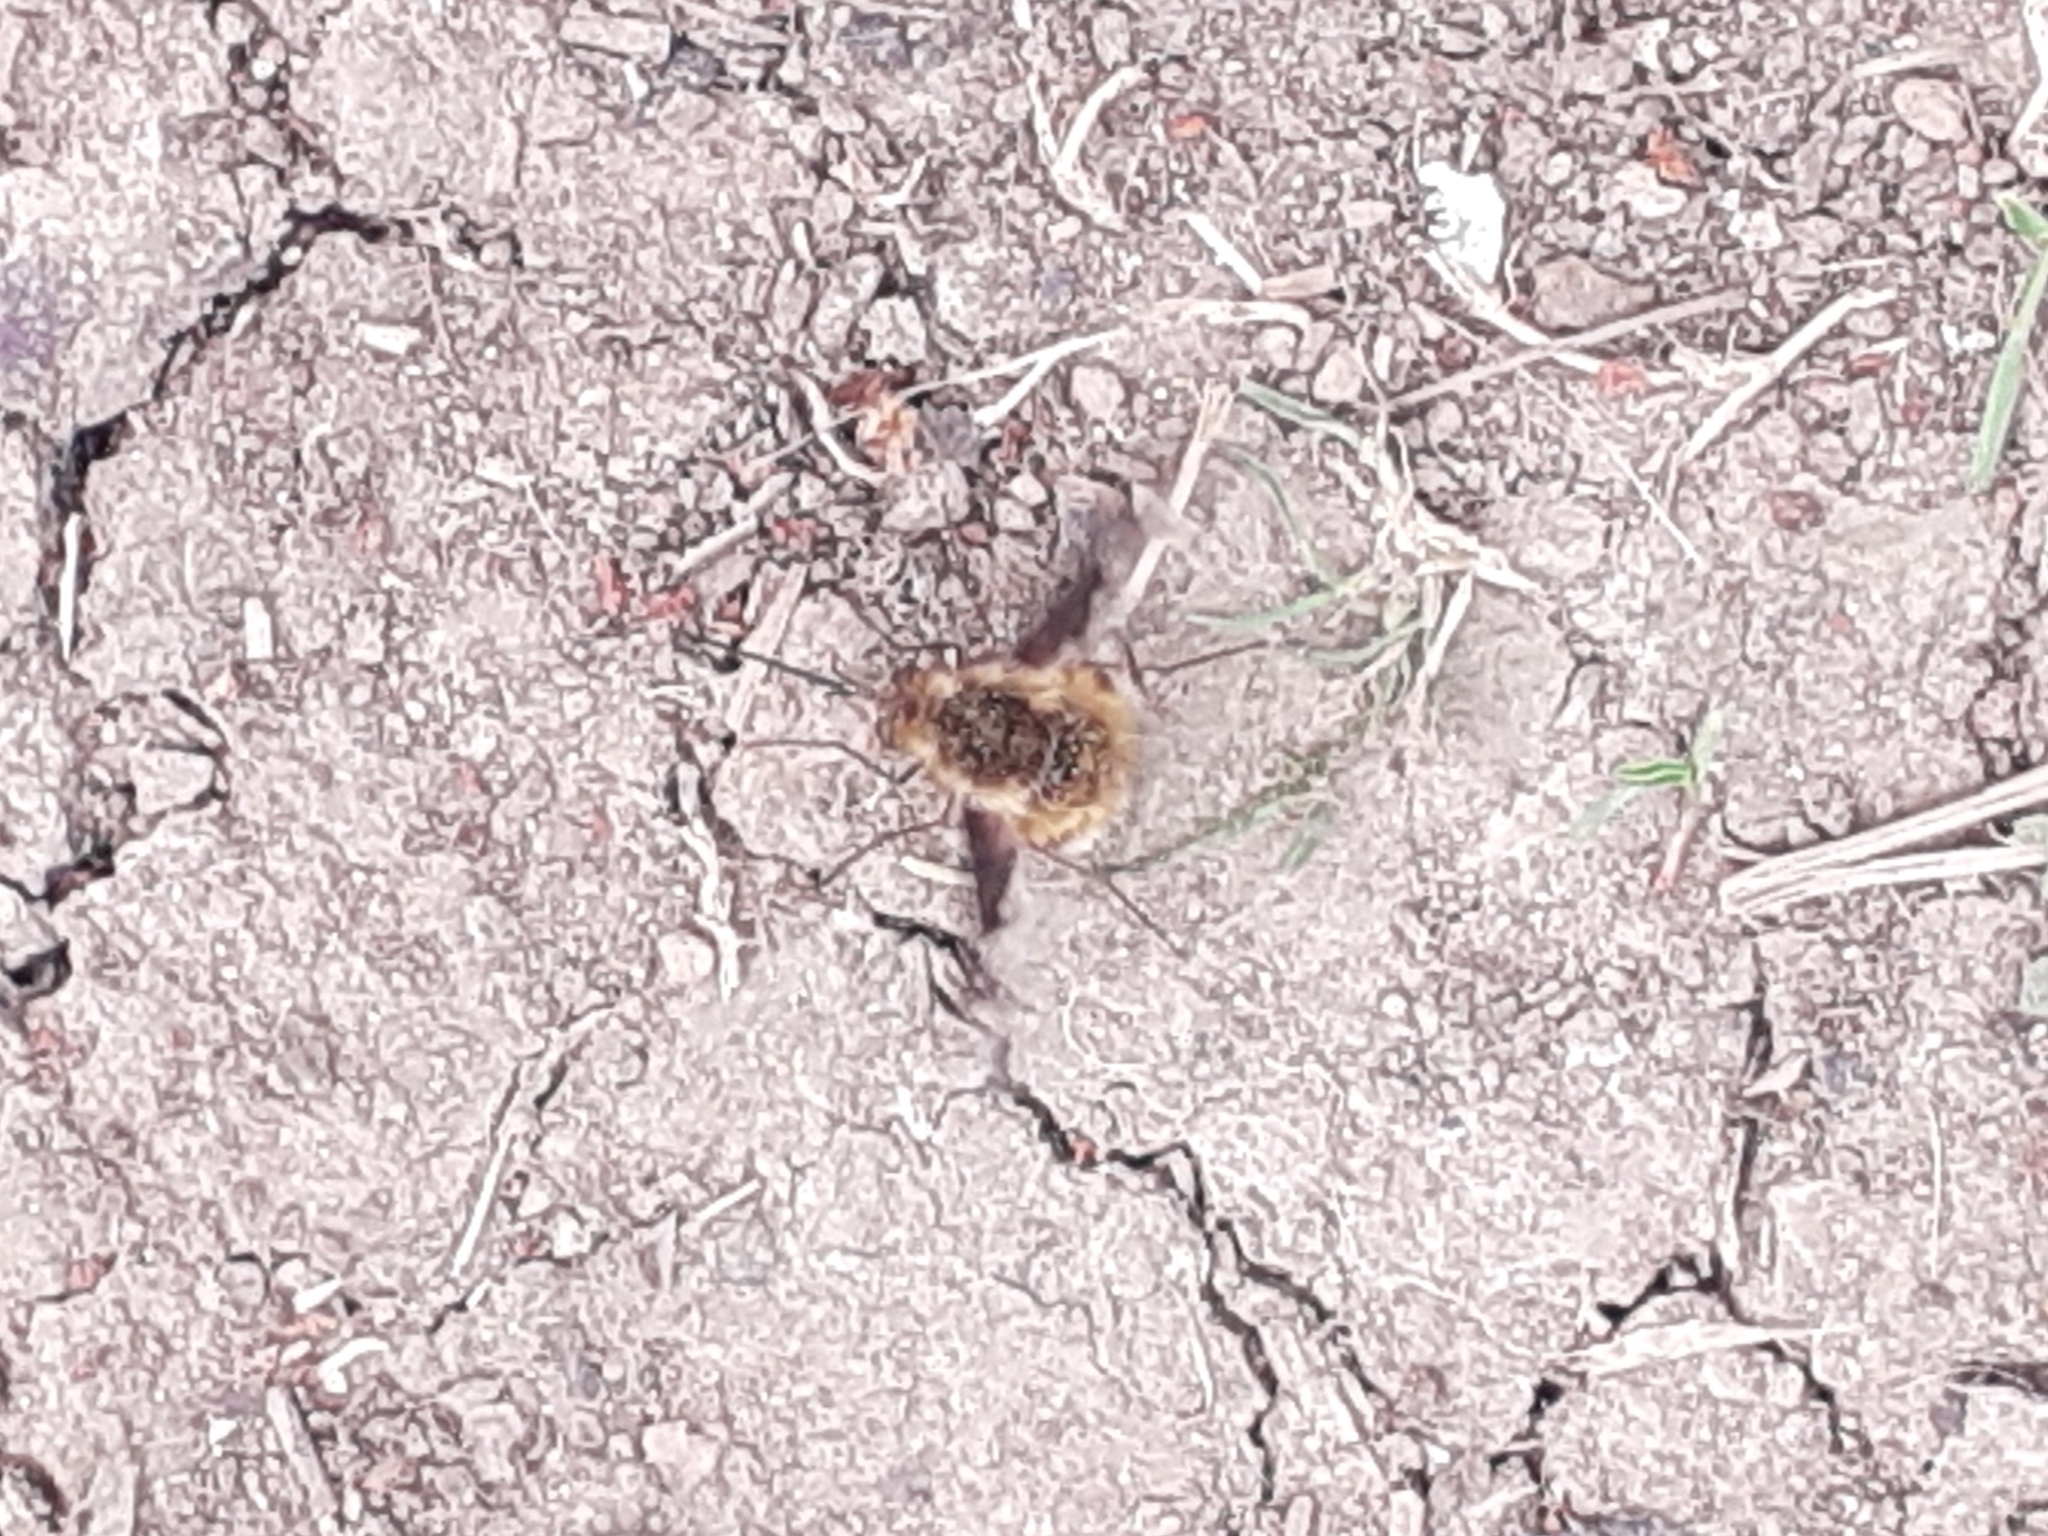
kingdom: Animalia
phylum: Arthropoda
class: Insecta
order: Diptera
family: Bombyliidae
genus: Bombylius
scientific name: Bombylius major
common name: Bee fly
